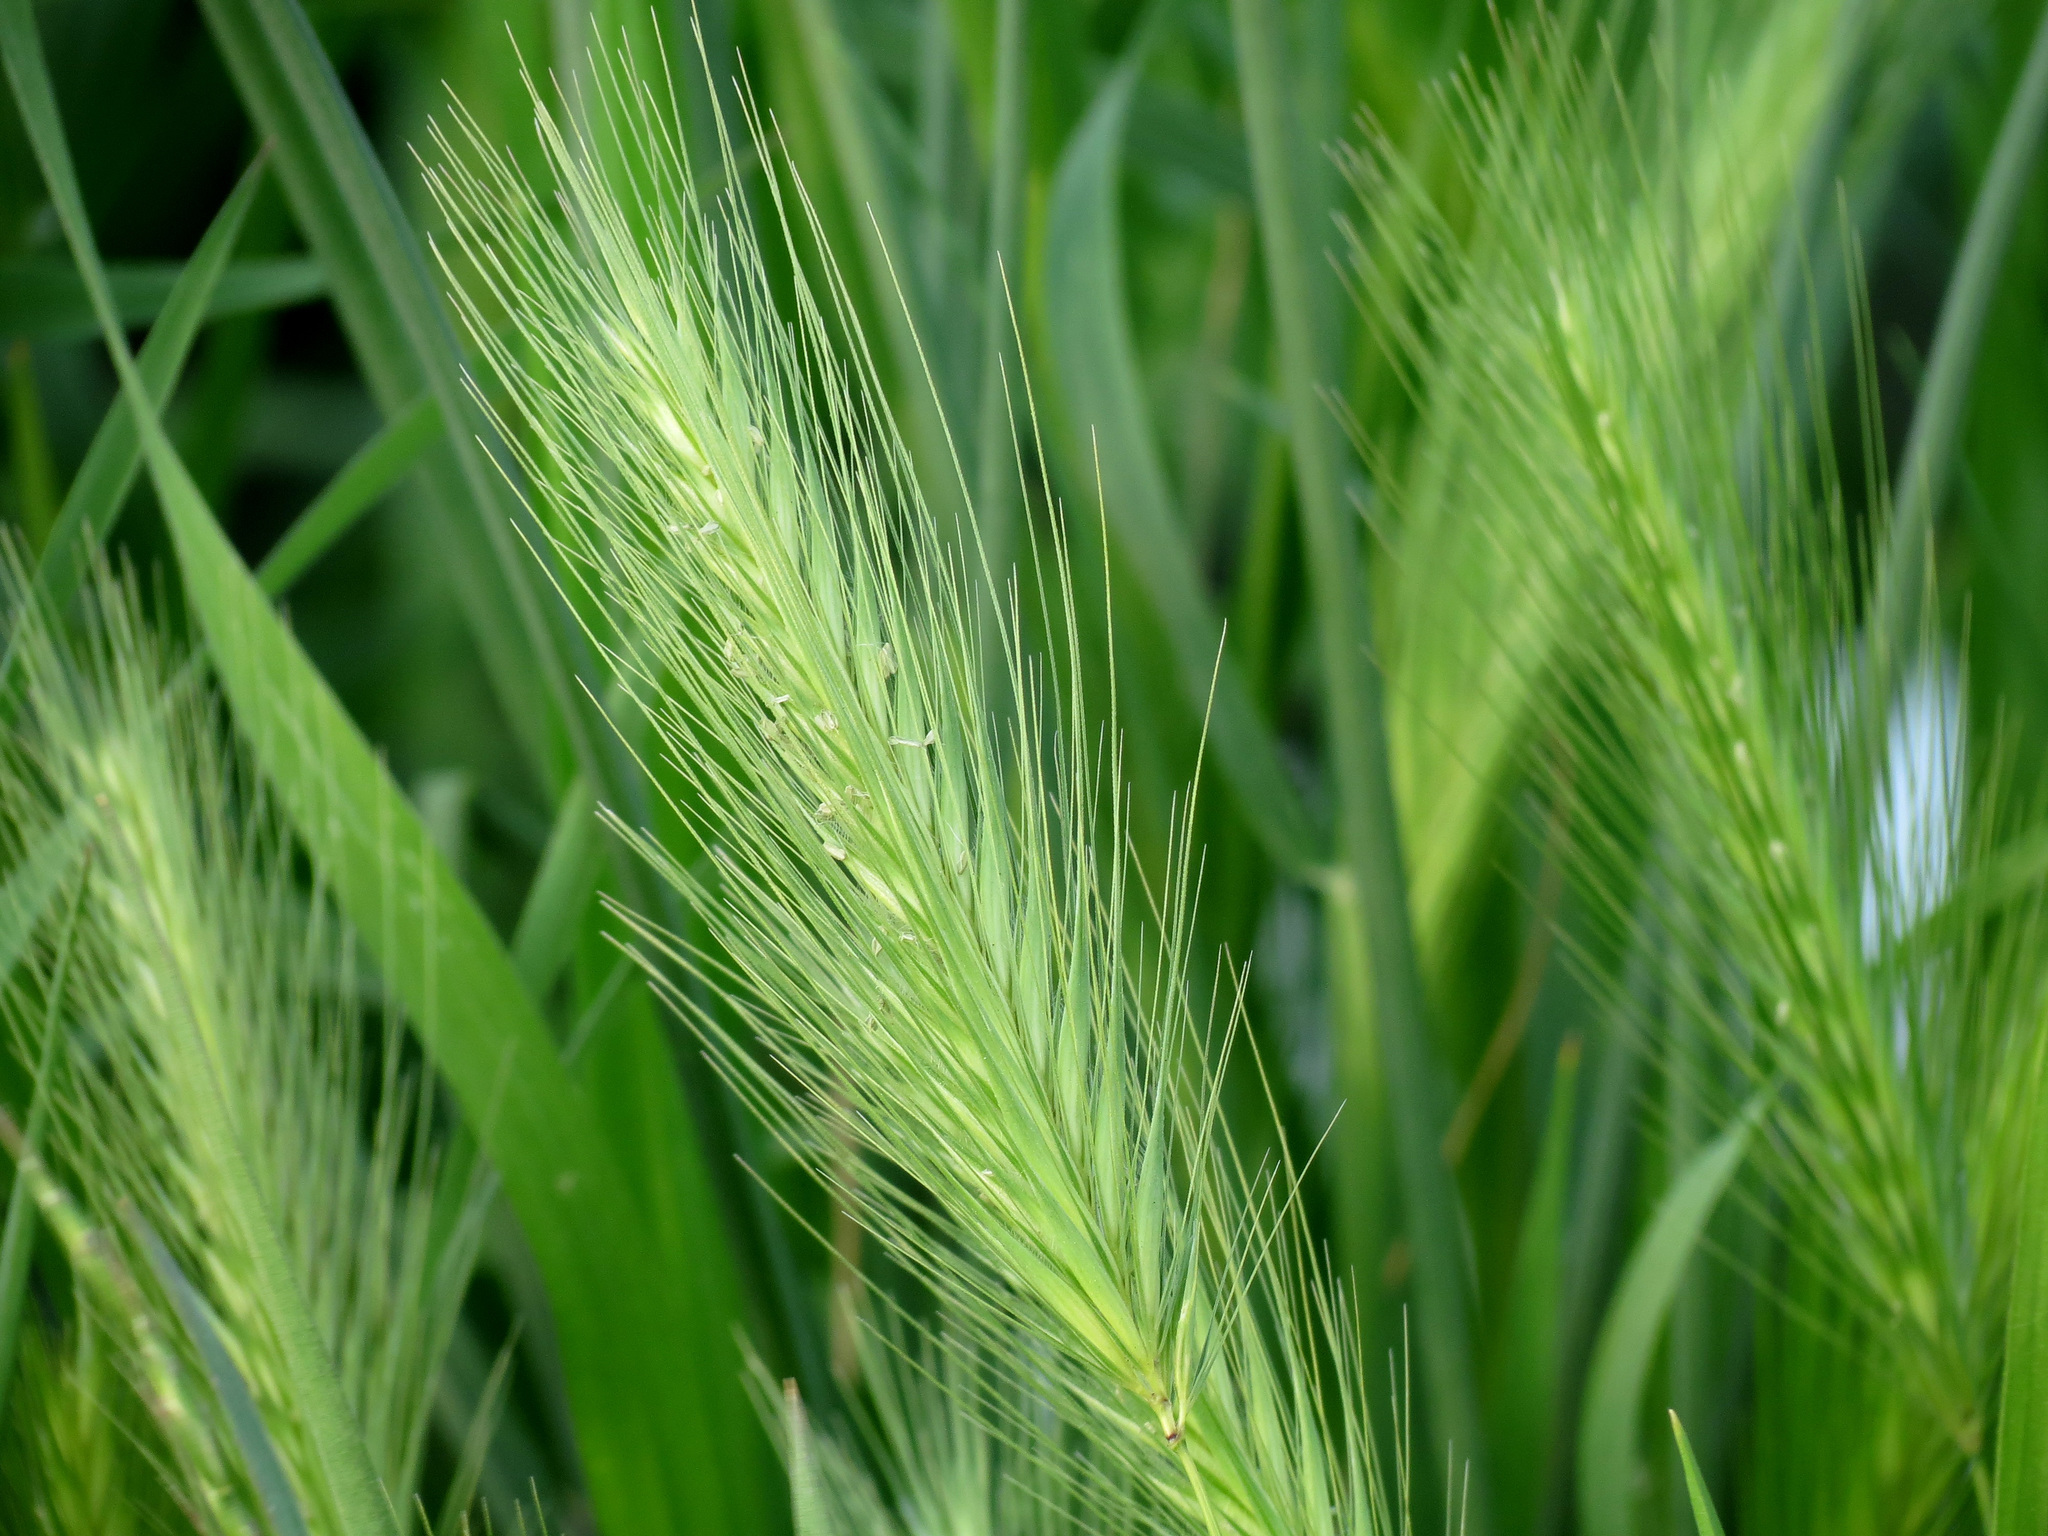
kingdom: Plantae
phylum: Tracheophyta
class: Liliopsida
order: Poales
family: Poaceae
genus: Hordeum
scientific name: Hordeum murinum
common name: Wall barley
